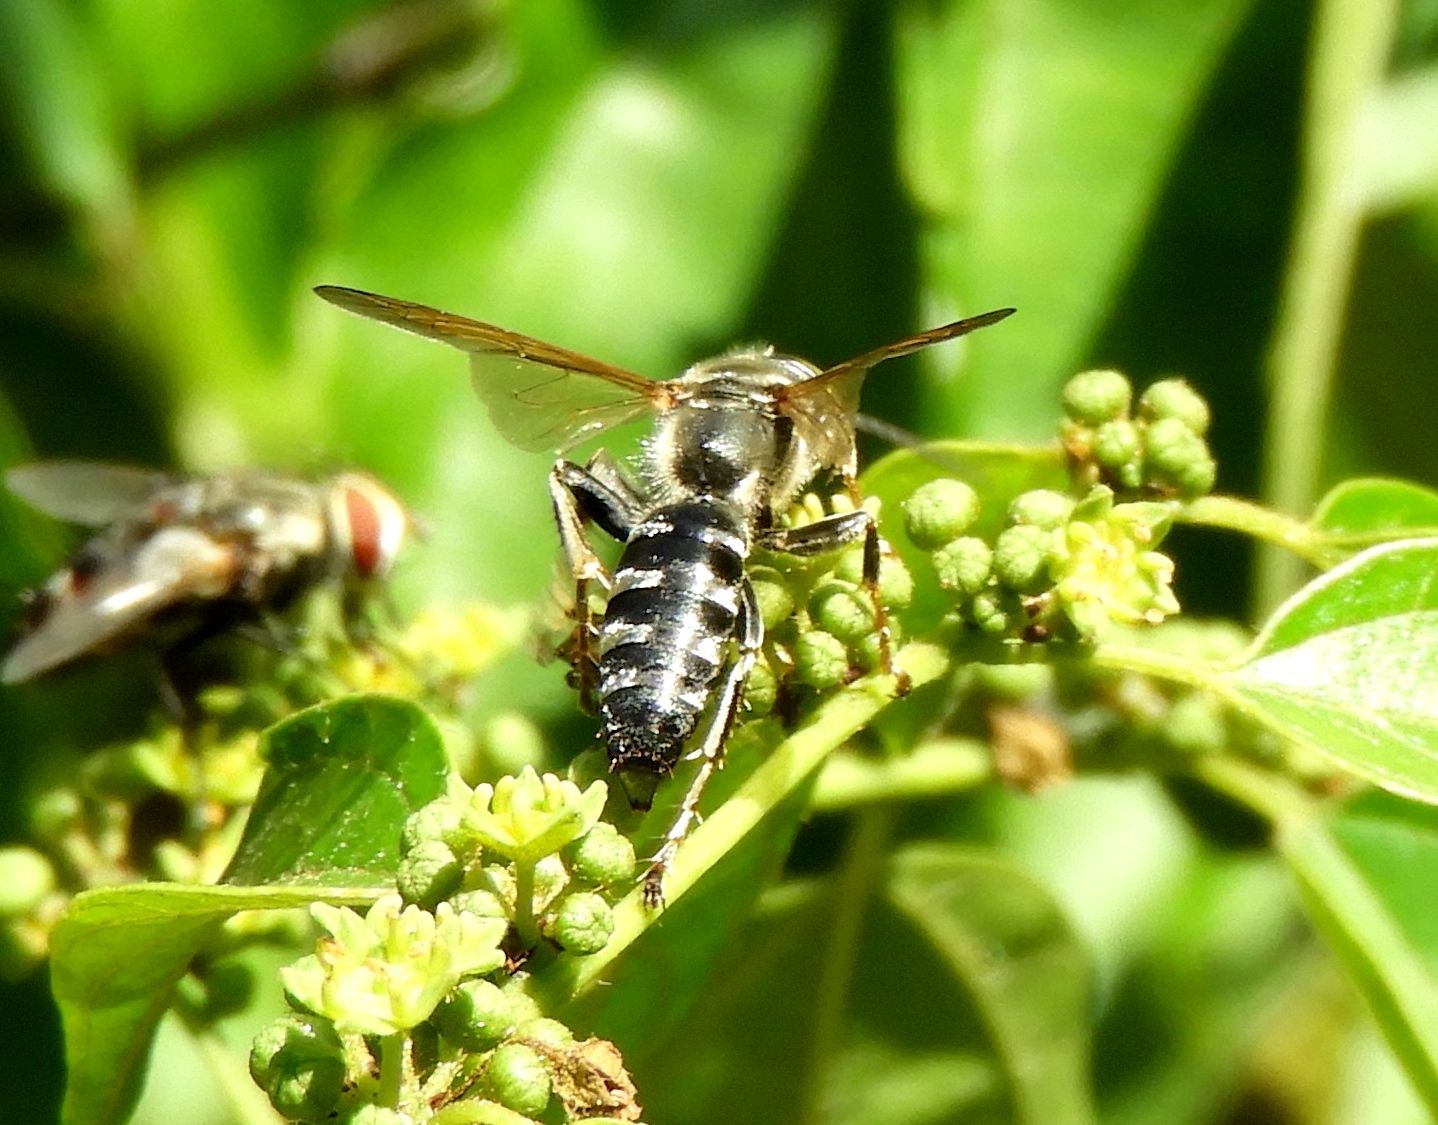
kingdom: Animalia
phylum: Arthropoda
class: Insecta
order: Hymenoptera
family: Crabronidae
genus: Tachytes
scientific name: Tachytes
